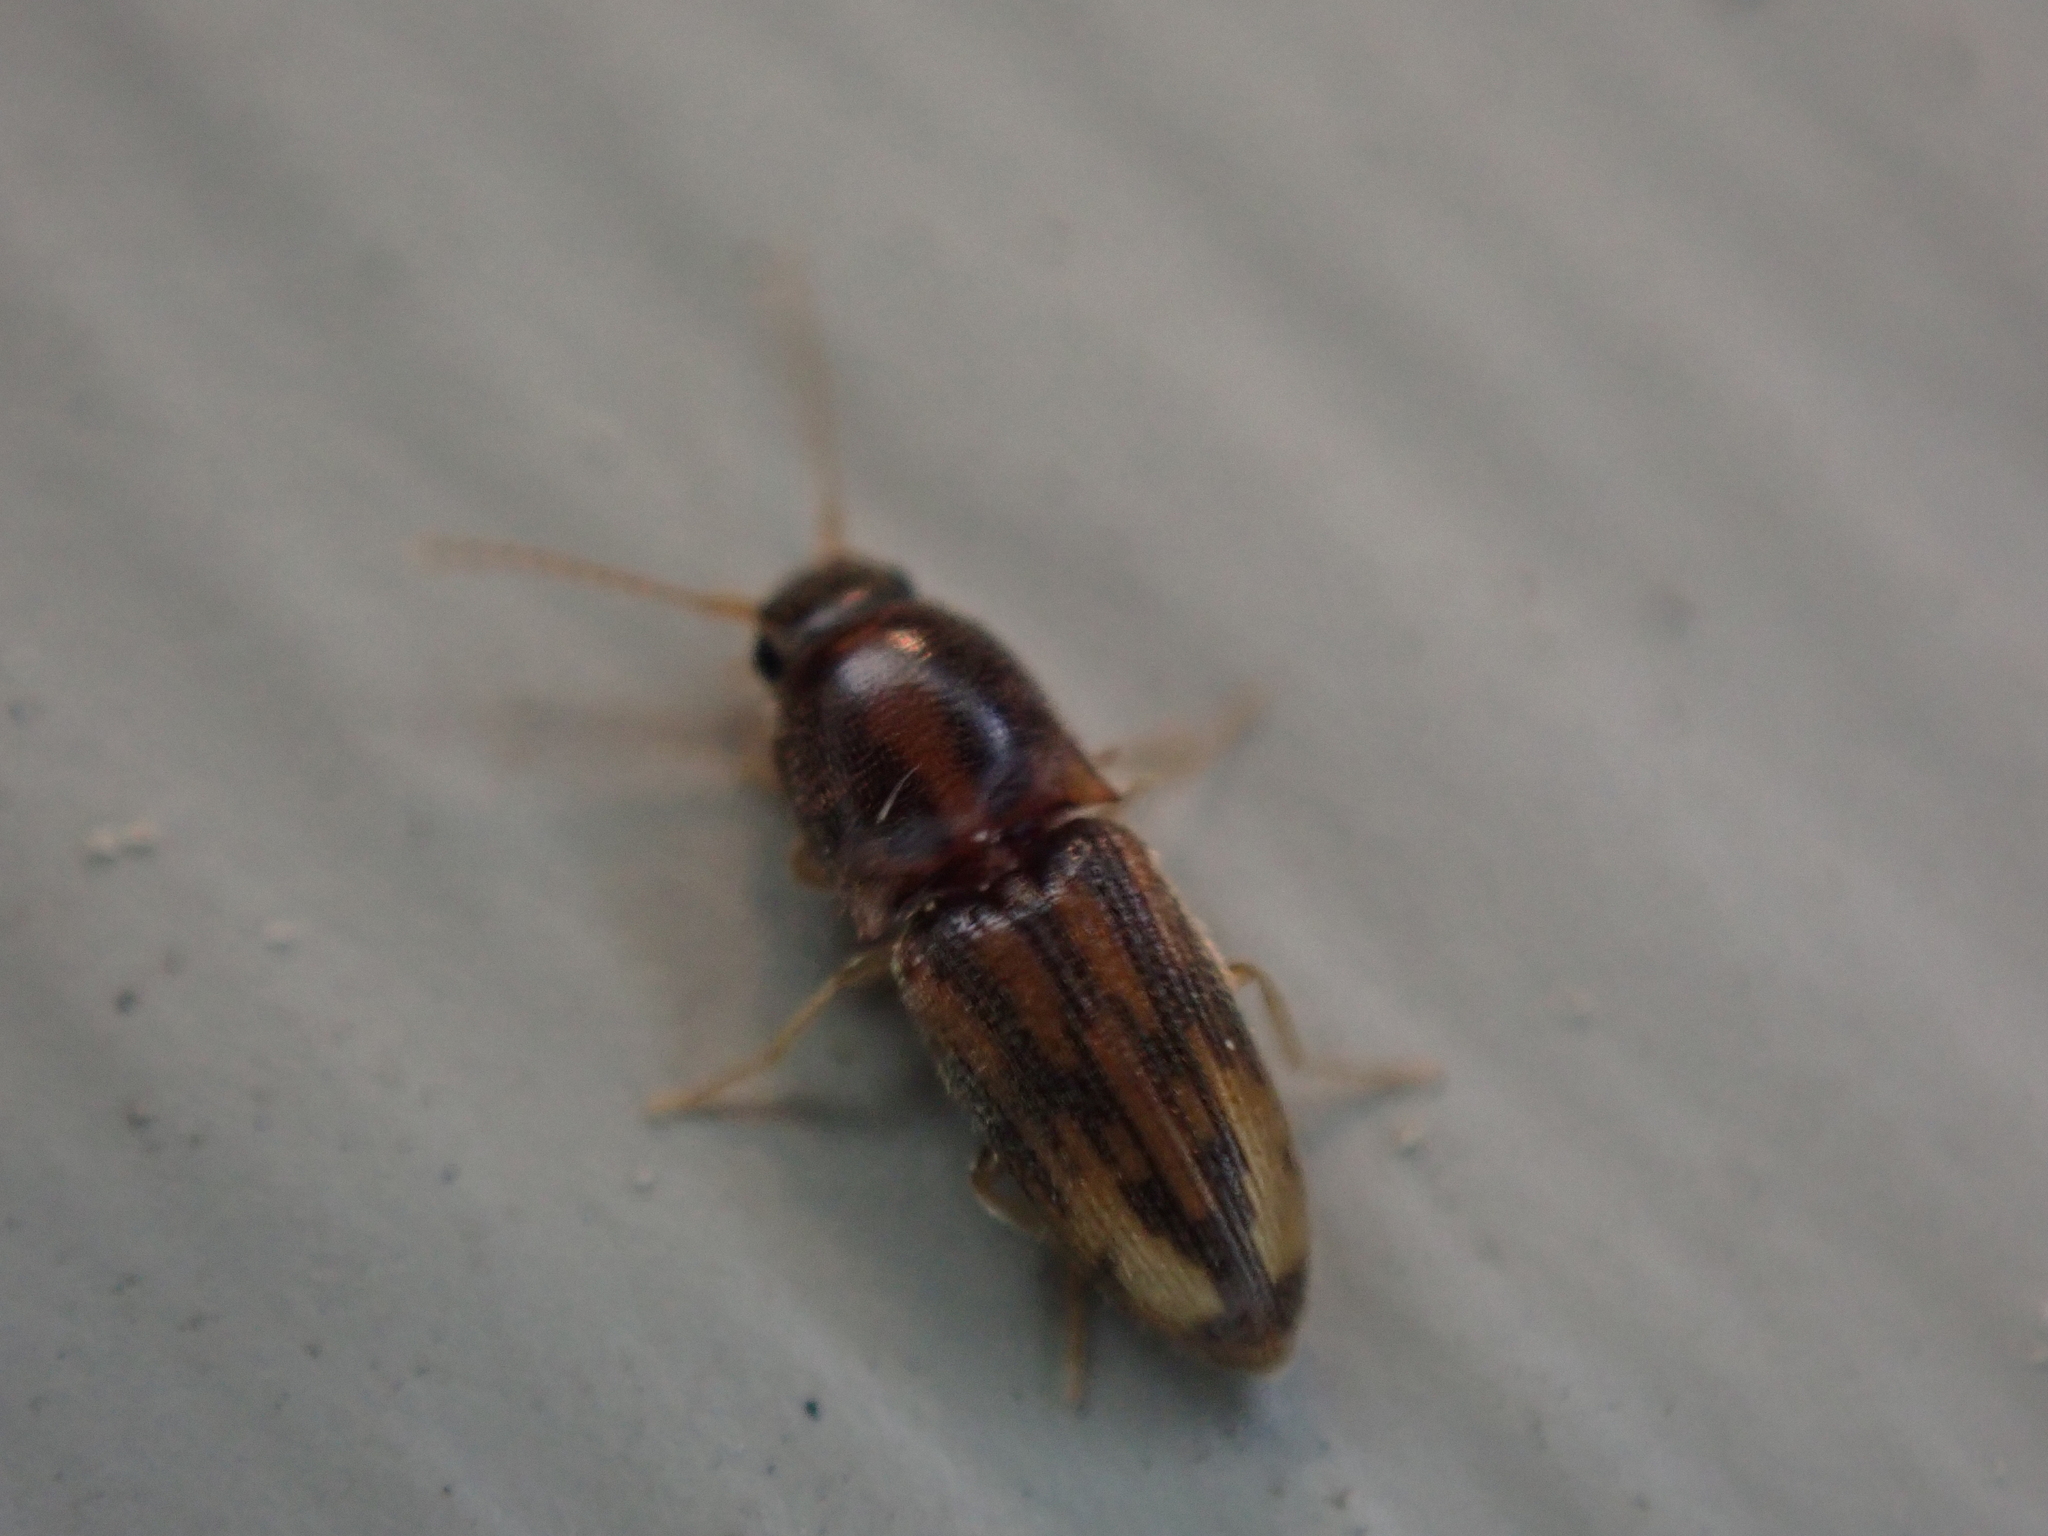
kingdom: Animalia
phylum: Arthropoda
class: Insecta
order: Coleoptera
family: Elateridae
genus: Monocrepidius
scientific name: Monocrepidius bellus
